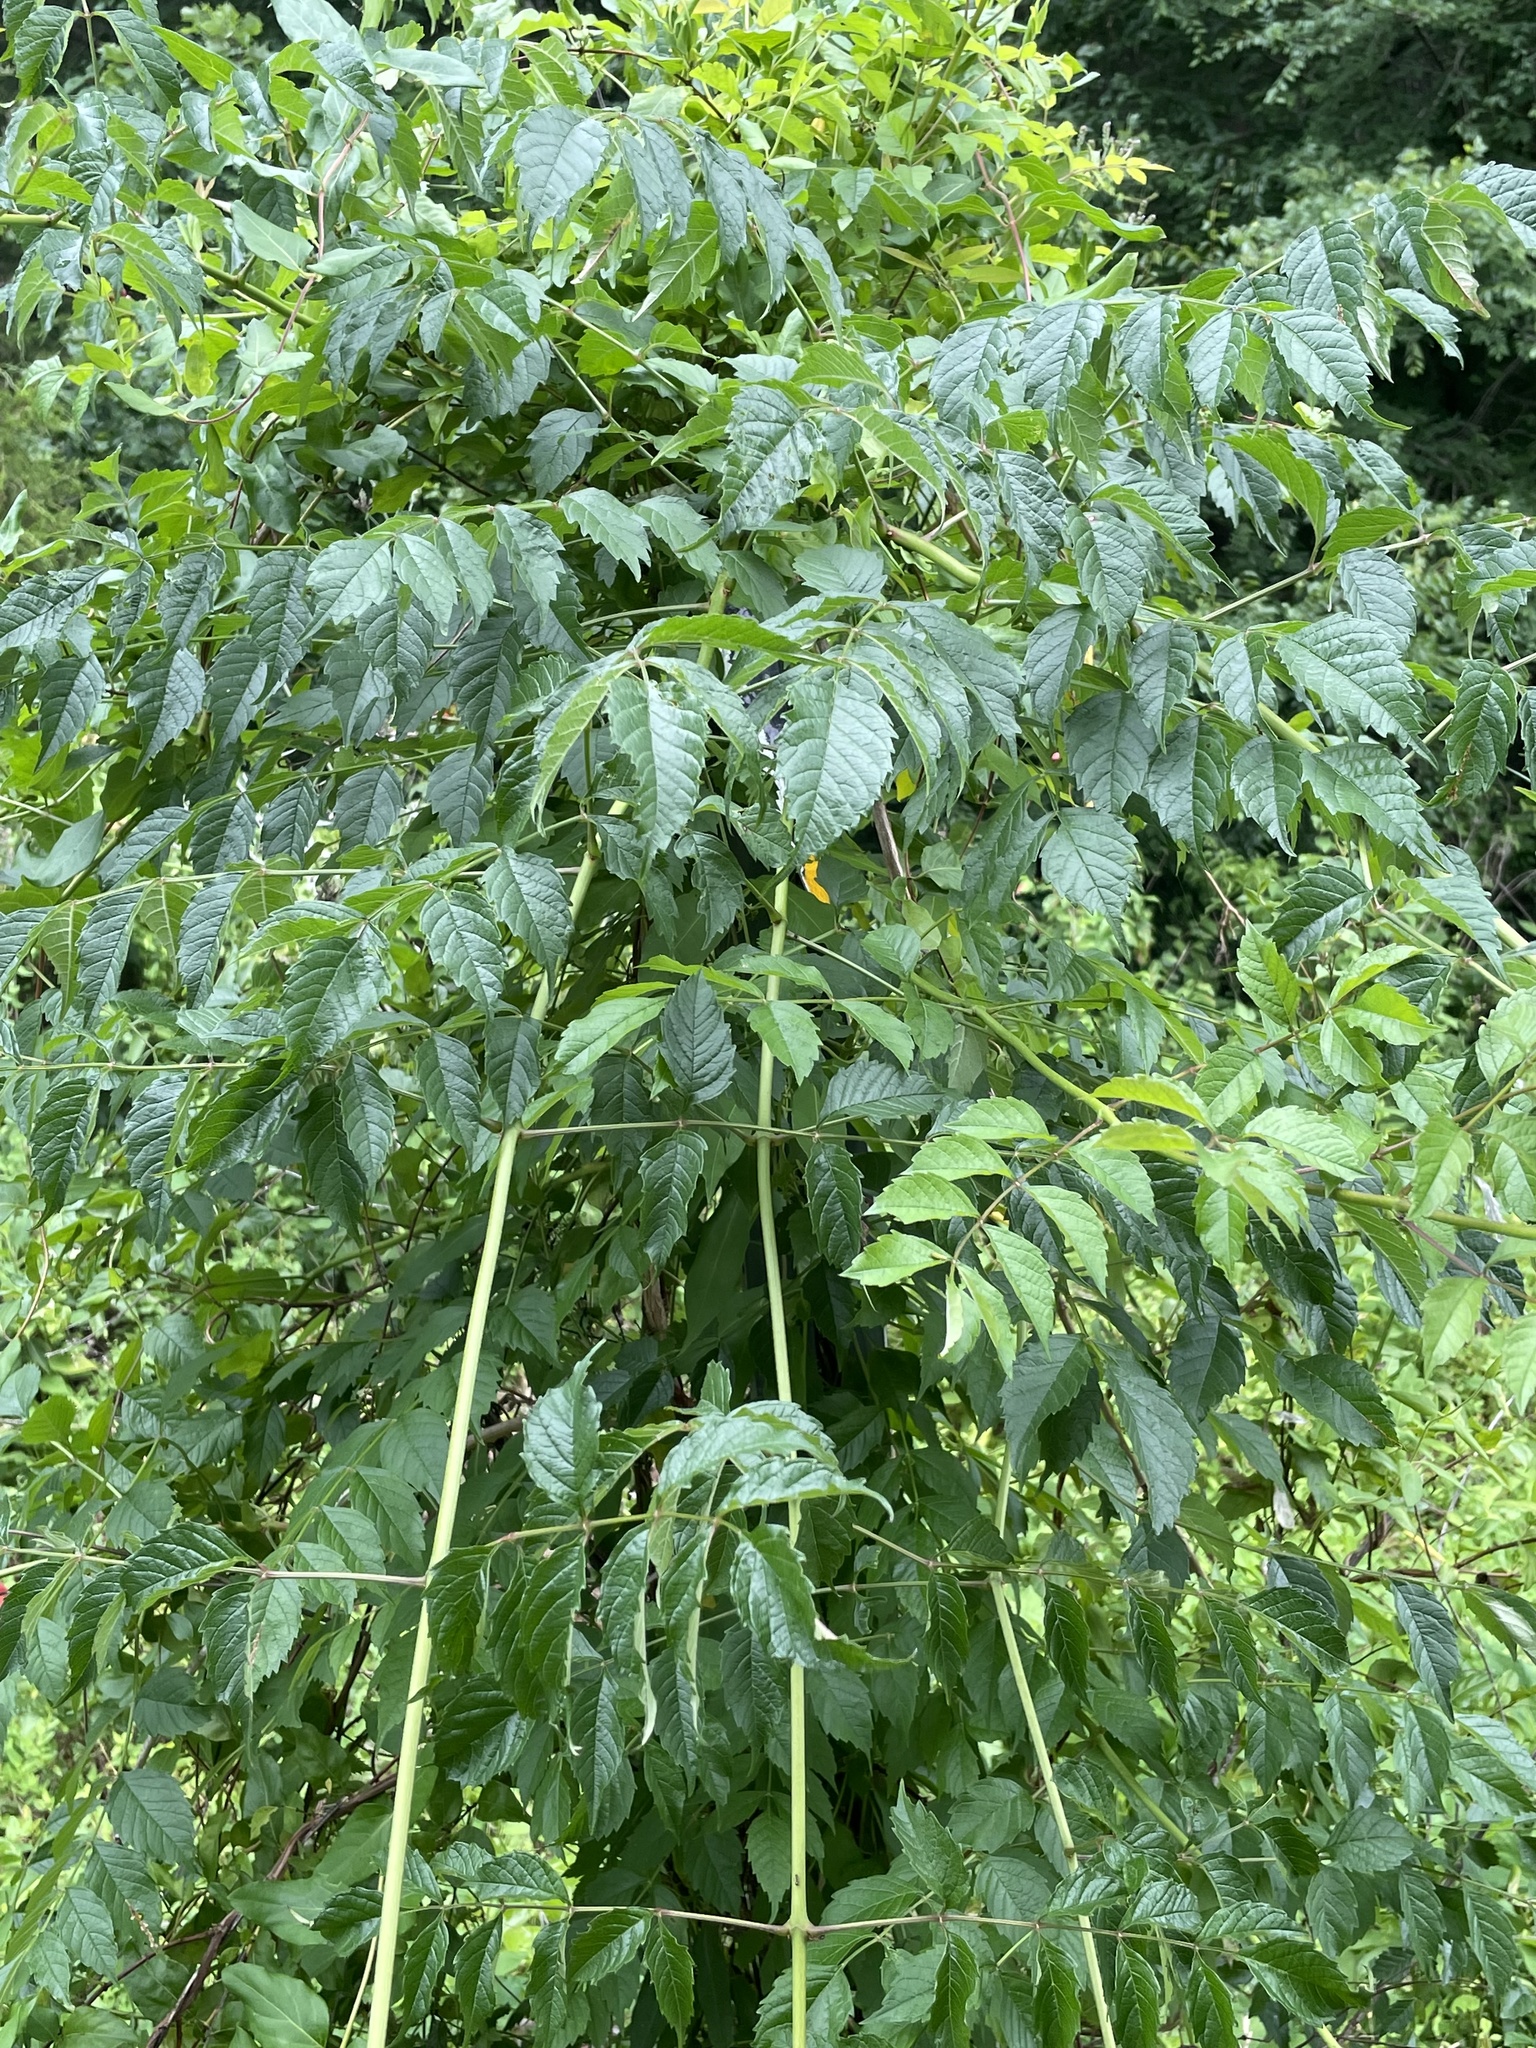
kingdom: Plantae
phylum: Tracheophyta
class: Magnoliopsida
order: Lamiales
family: Bignoniaceae
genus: Campsis
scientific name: Campsis radicans
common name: Trumpet-creeper
